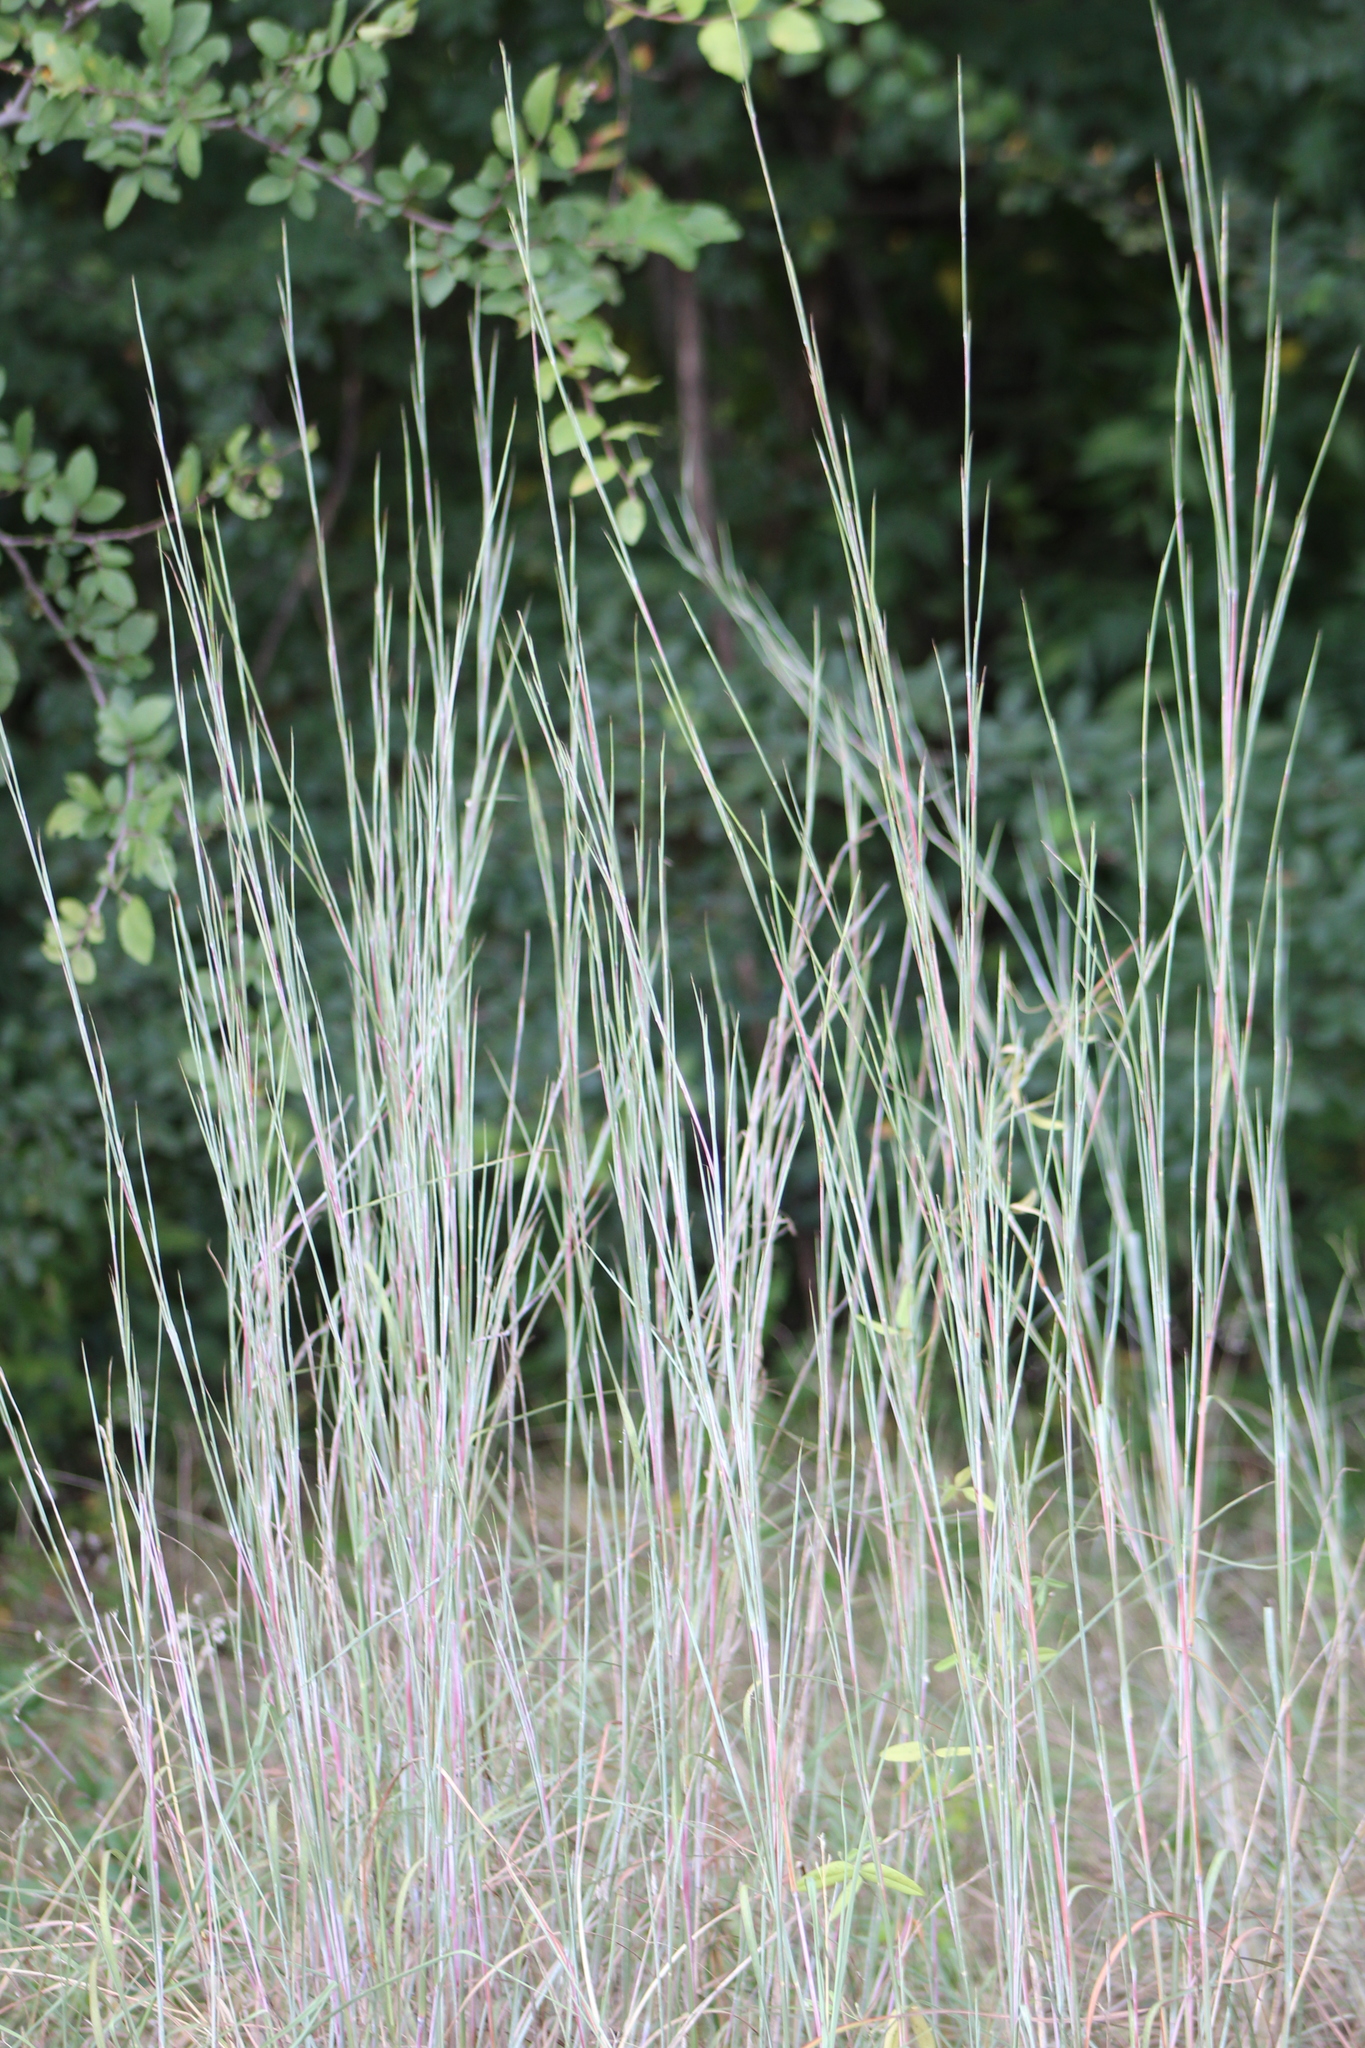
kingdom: Plantae
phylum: Tracheophyta
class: Liliopsida
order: Poales
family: Poaceae
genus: Schizachyrium
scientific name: Schizachyrium scoparium
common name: Little bluestem
